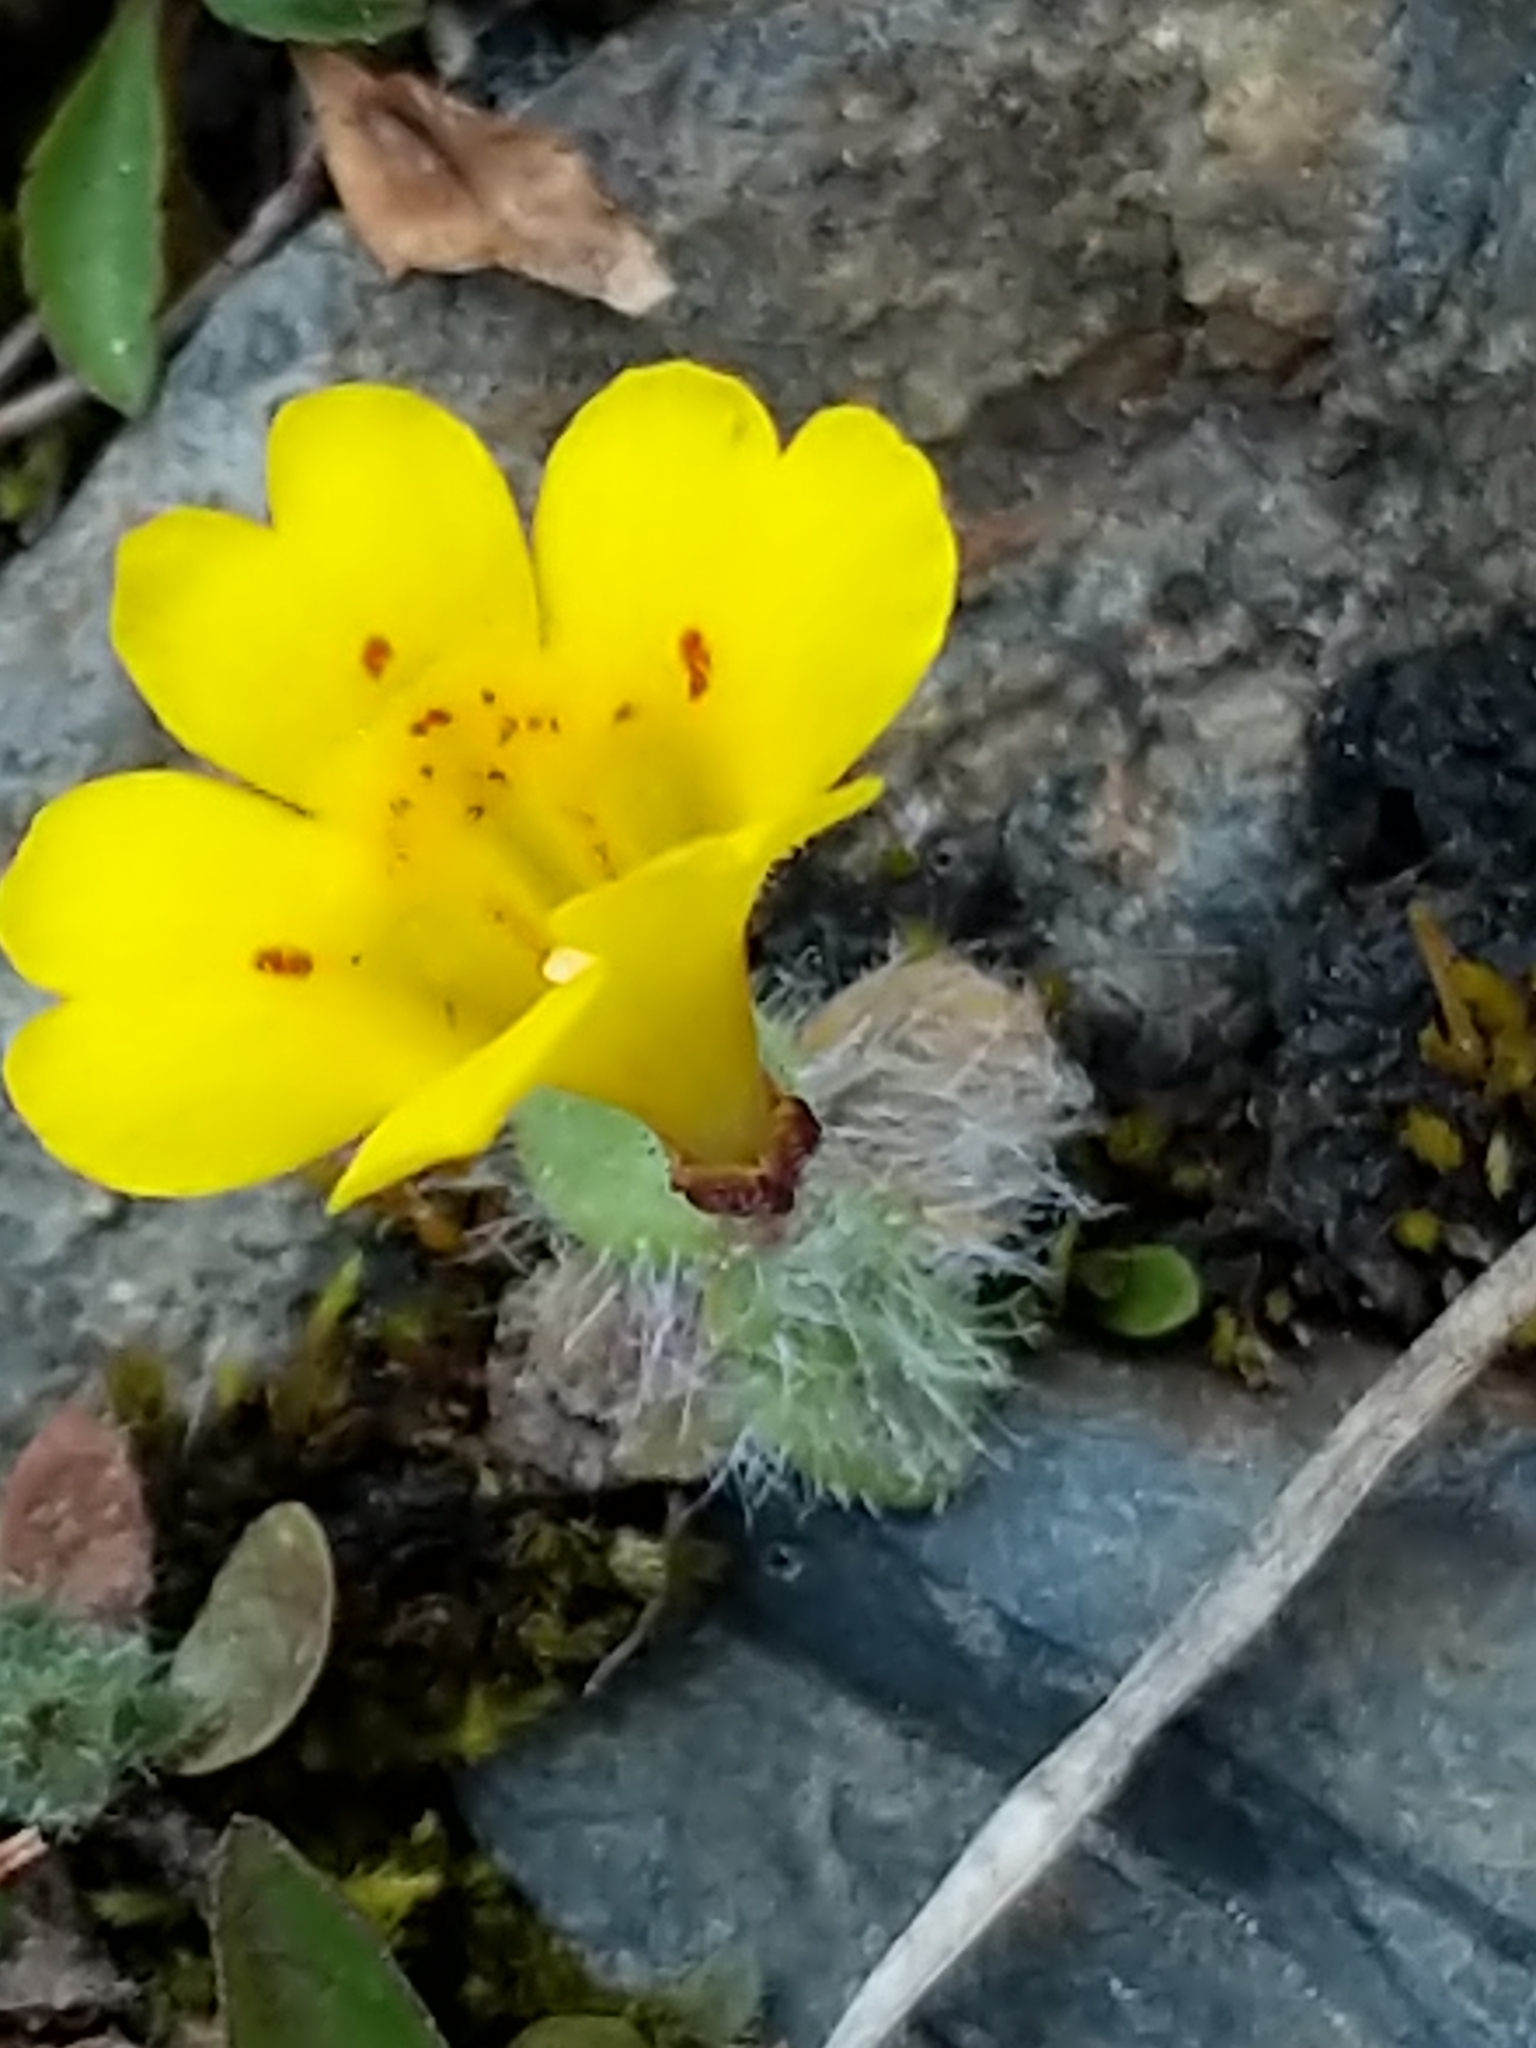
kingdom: Plantae
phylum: Tracheophyta
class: Magnoliopsida
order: Lamiales
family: Phrymaceae
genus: Erythranthe
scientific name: Erythranthe primuloides
